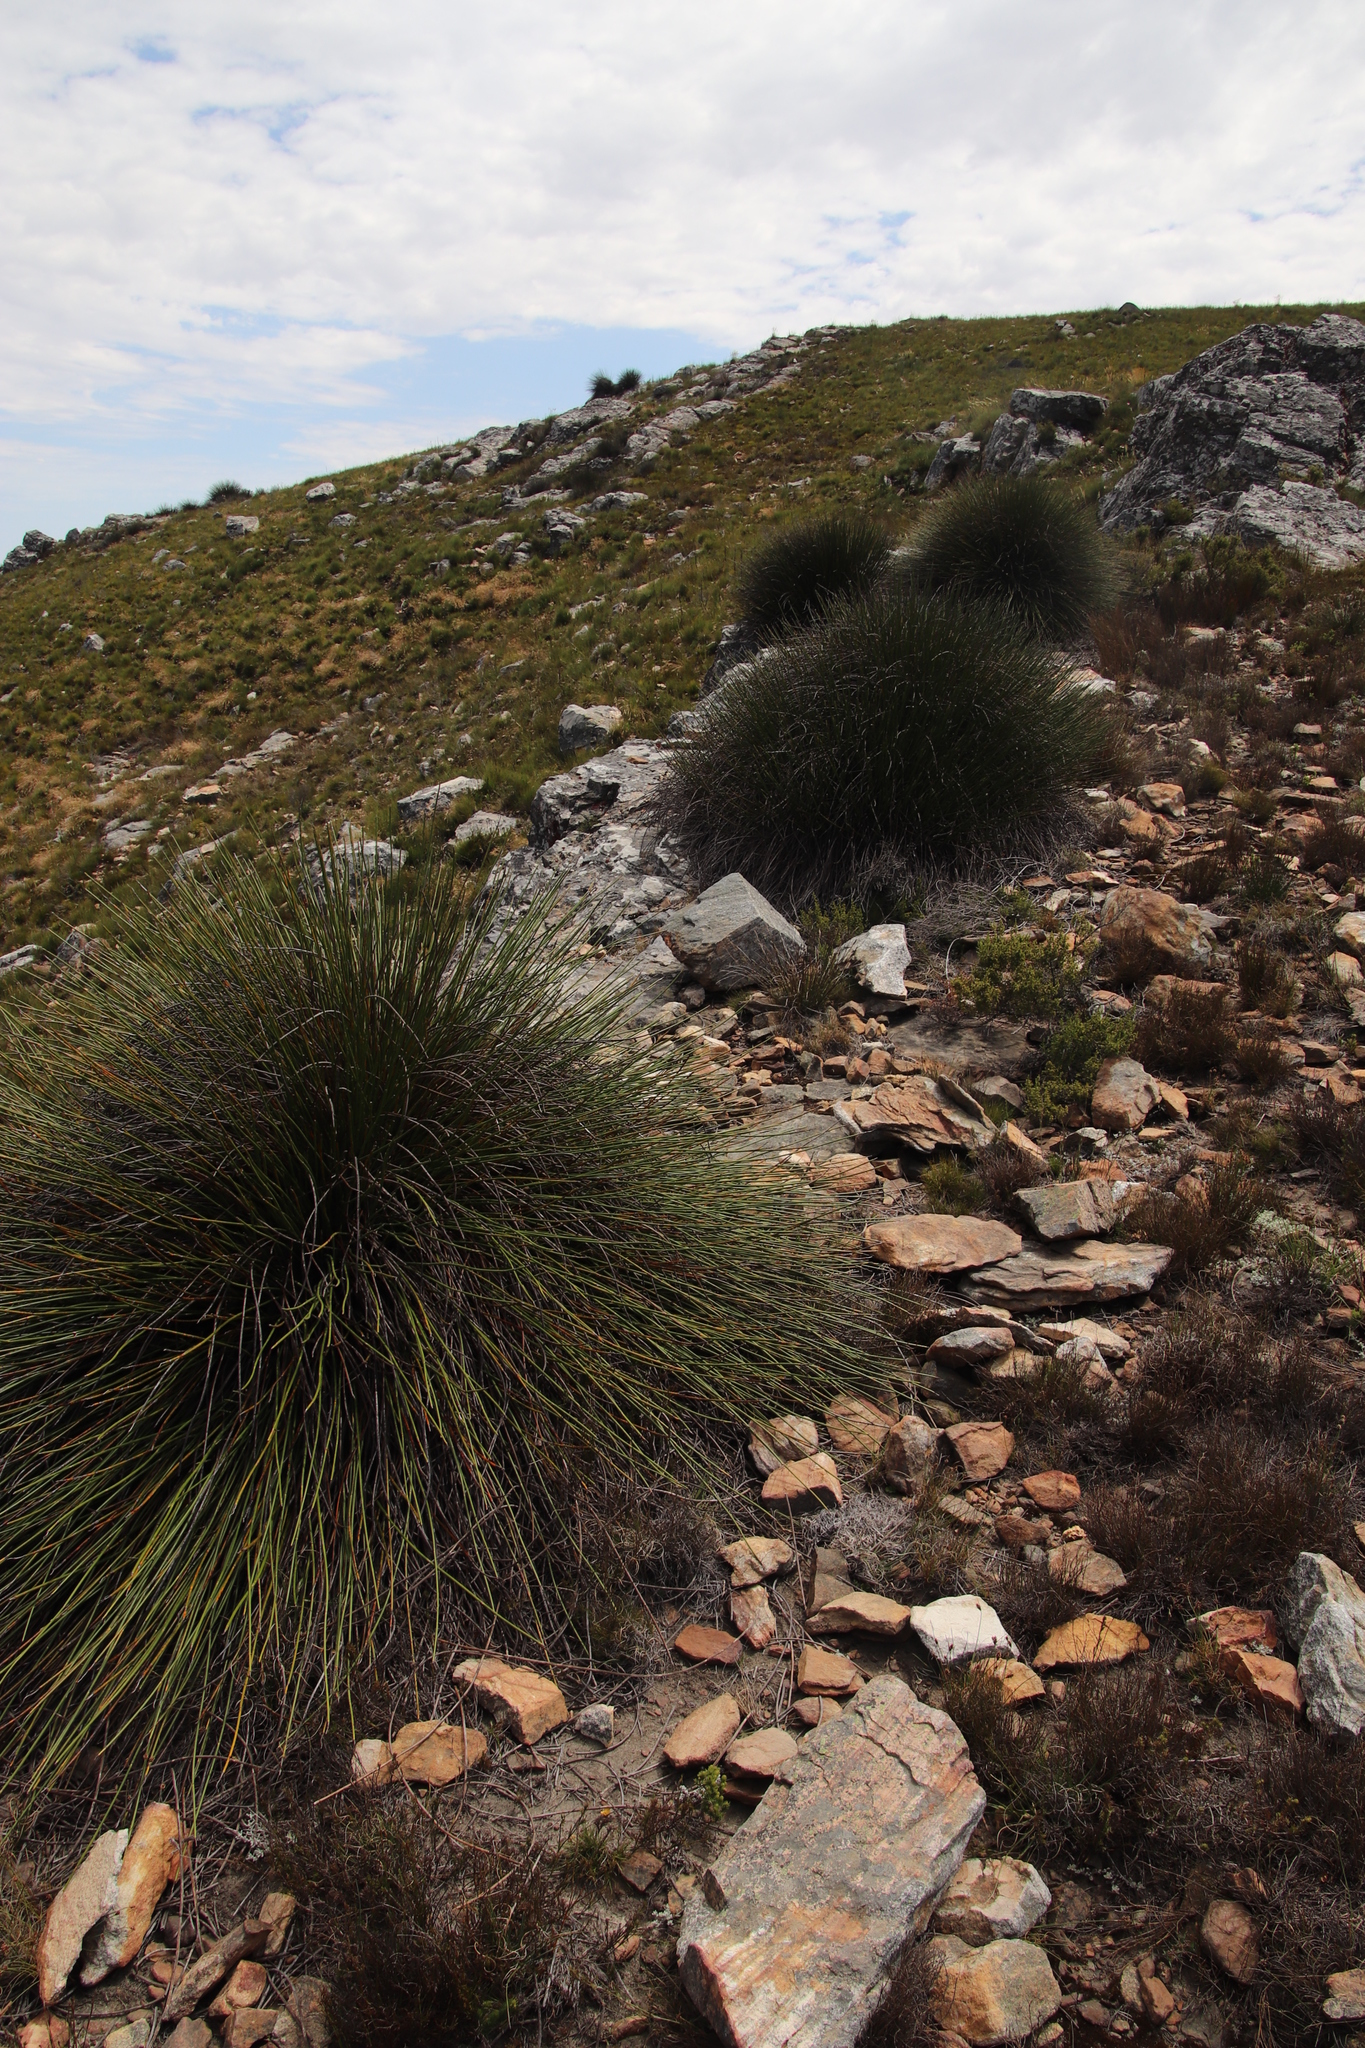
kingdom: Plantae
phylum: Tracheophyta
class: Liliopsida
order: Poales
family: Restionaceae
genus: Askidiosperma
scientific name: Askidiosperma andreaeanum
